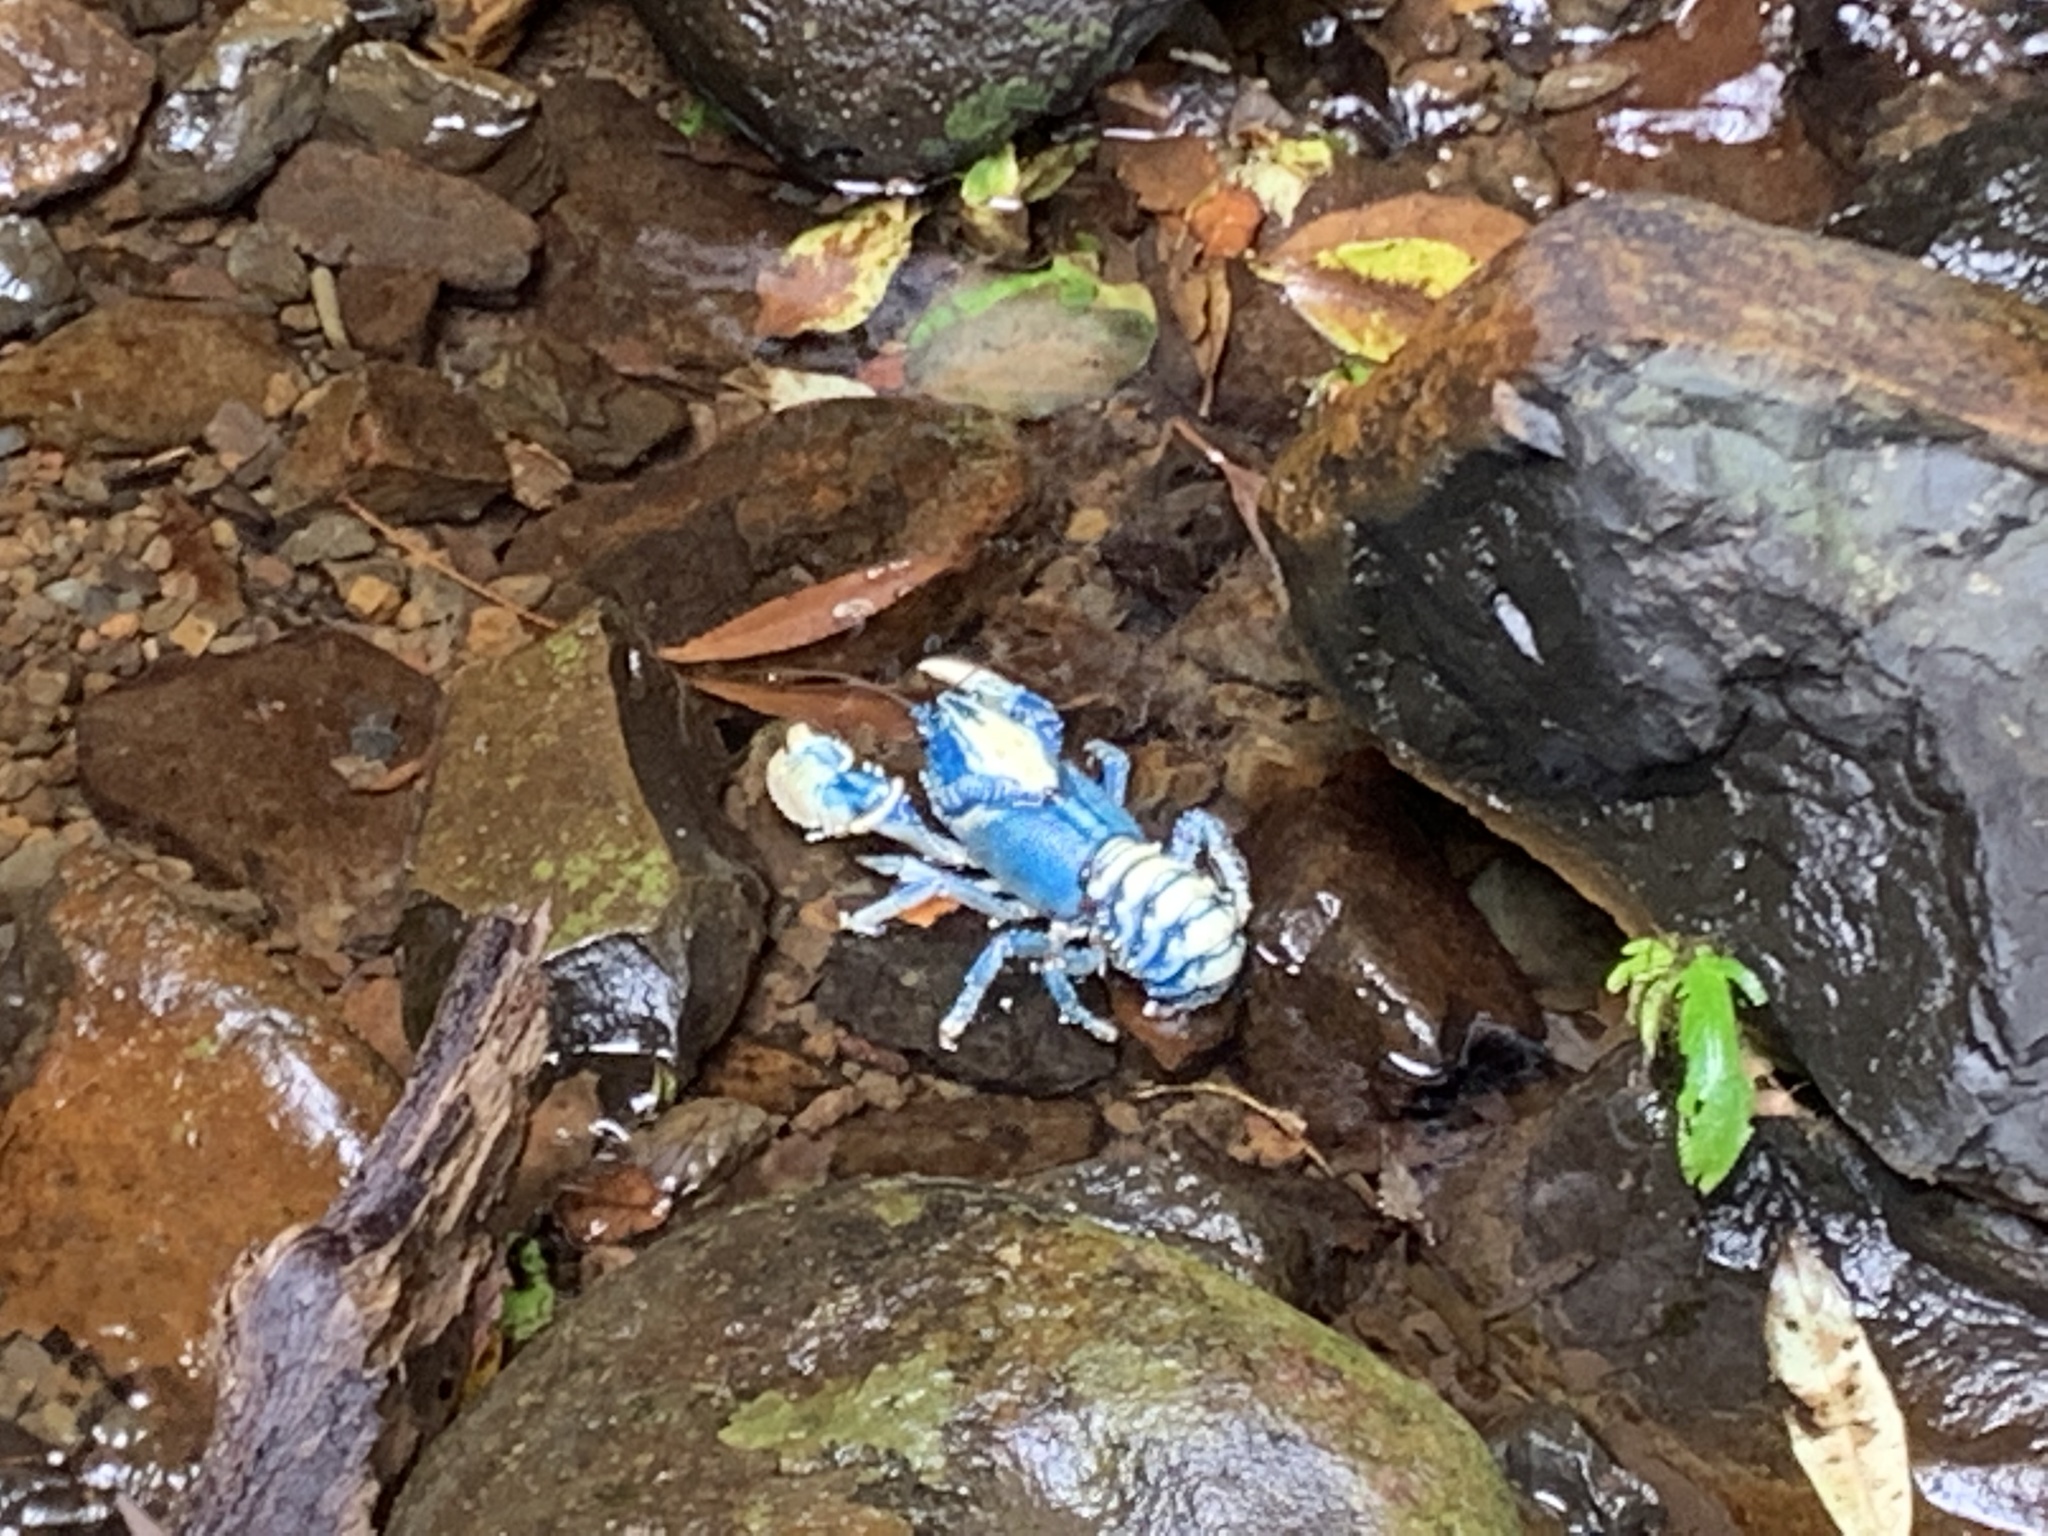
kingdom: Animalia
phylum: Arthropoda
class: Malacostraca
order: Decapoda
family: Parastacidae
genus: Euastacus
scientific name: Euastacus sulcatus
